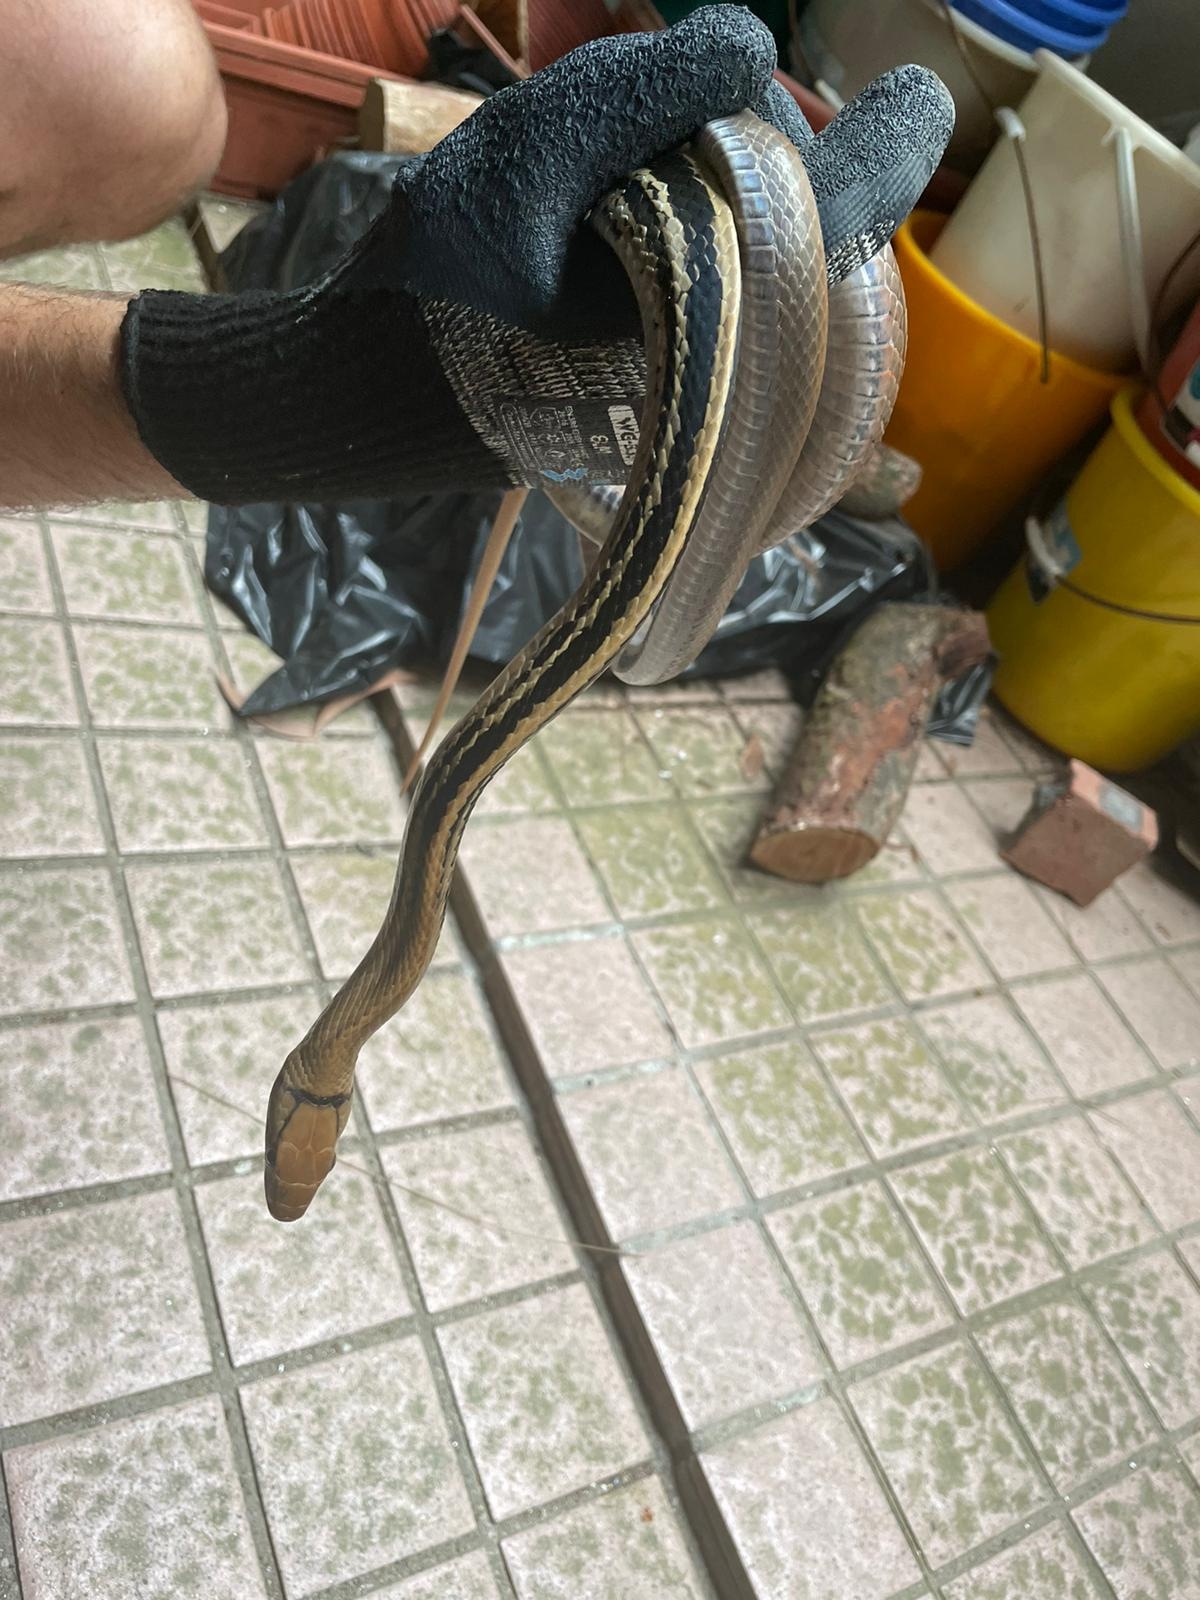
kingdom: Animalia
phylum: Chordata
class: Squamata
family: Colubridae
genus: Coelognathus
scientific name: Coelognathus radiatus
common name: Copperhead rat snake
